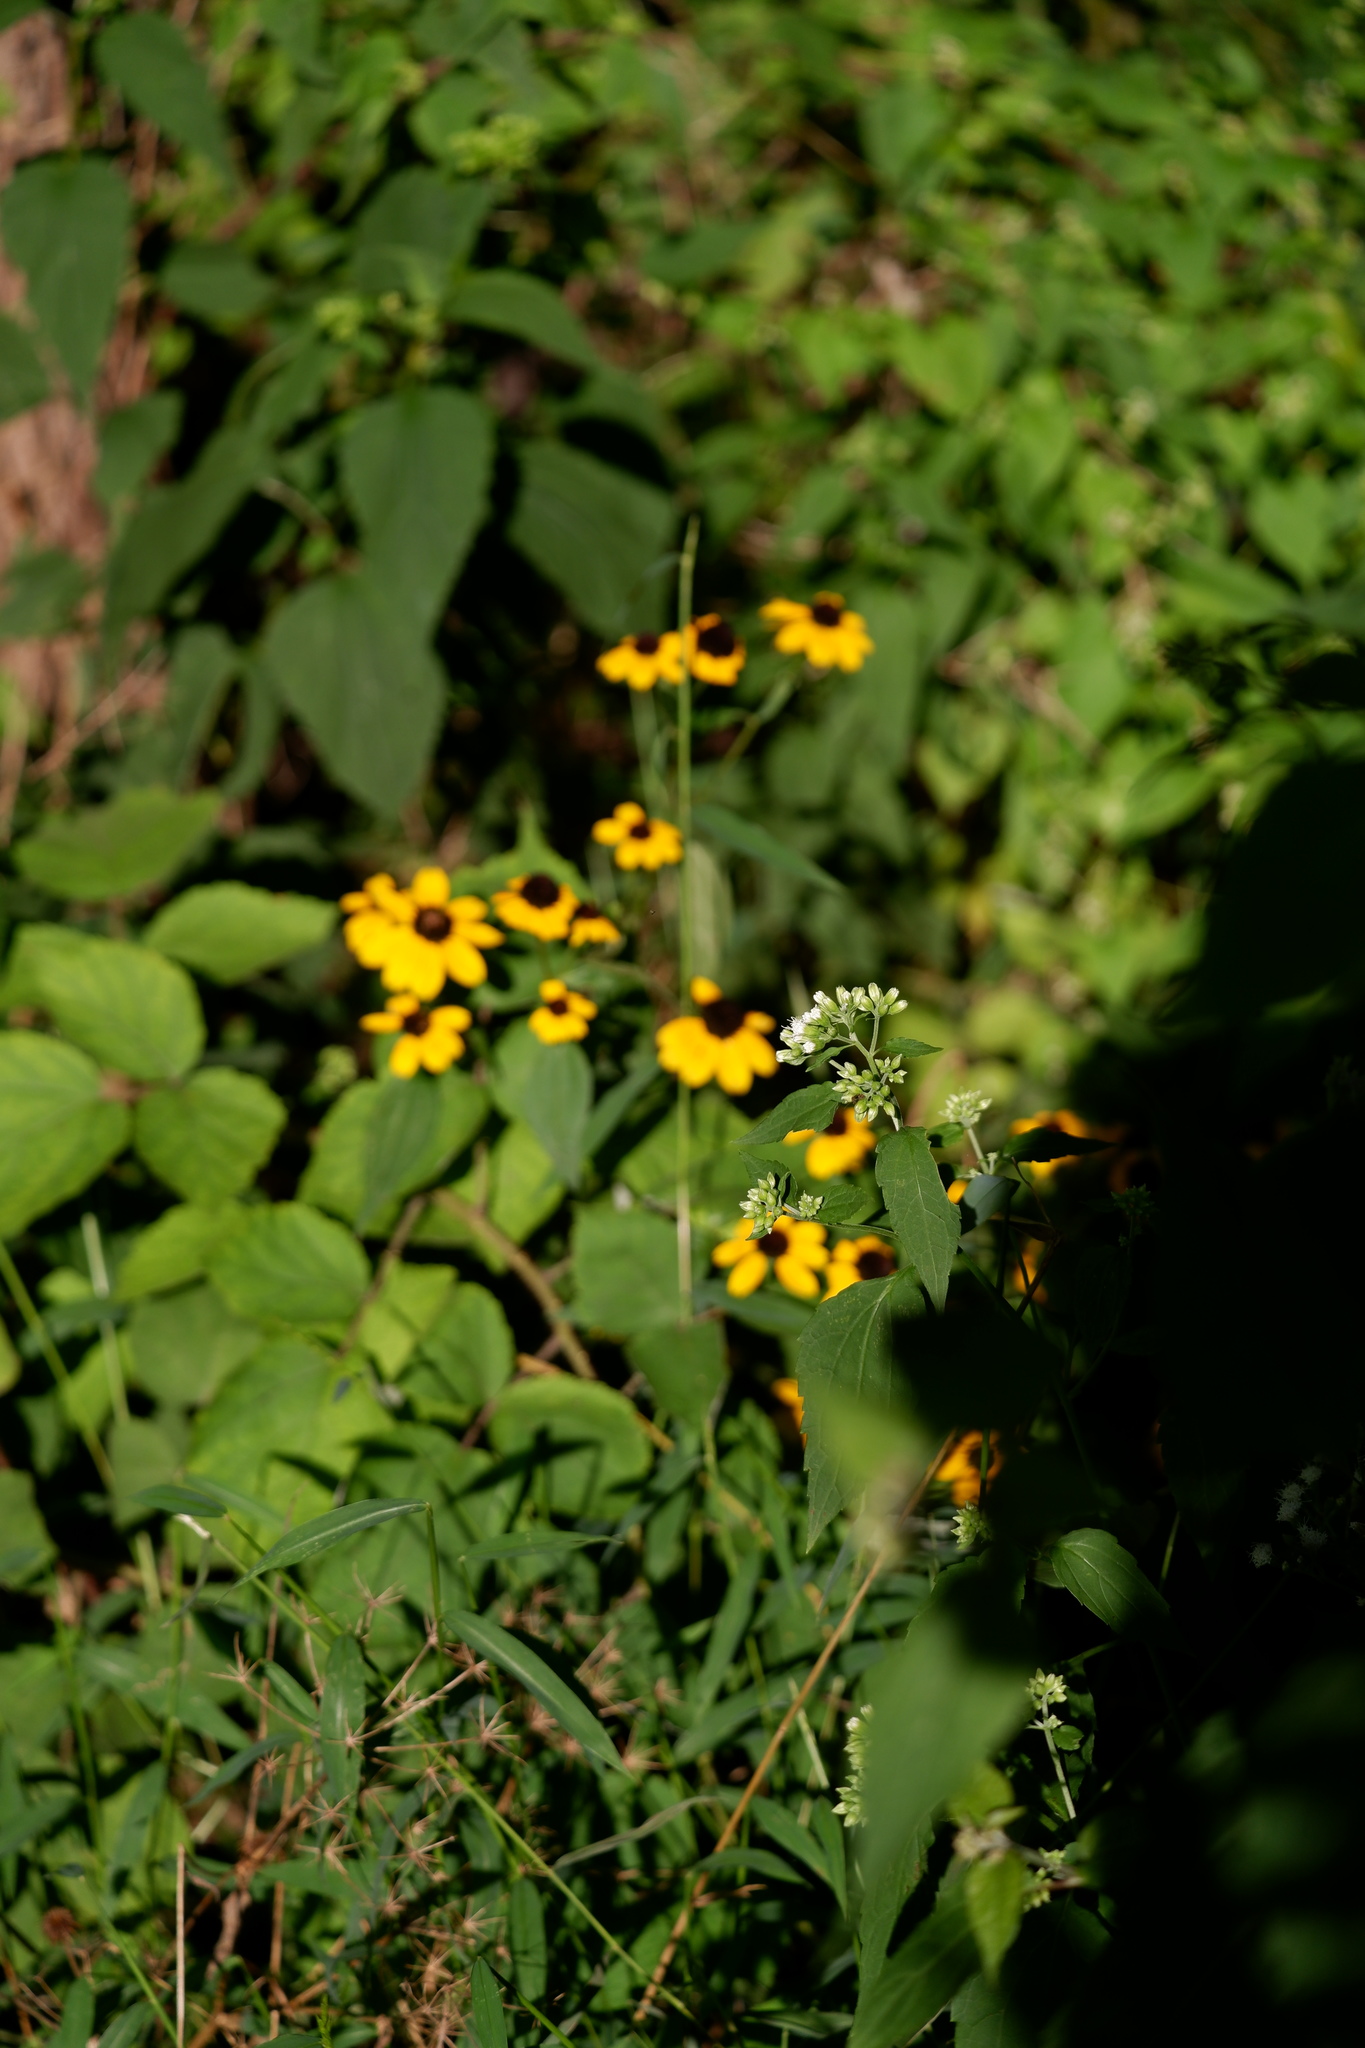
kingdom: Plantae
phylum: Tracheophyta
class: Magnoliopsida
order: Asterales
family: Asteraceae
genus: Rudbeckia
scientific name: Rudbeckia triloba
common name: Thin-leaved coneflower
